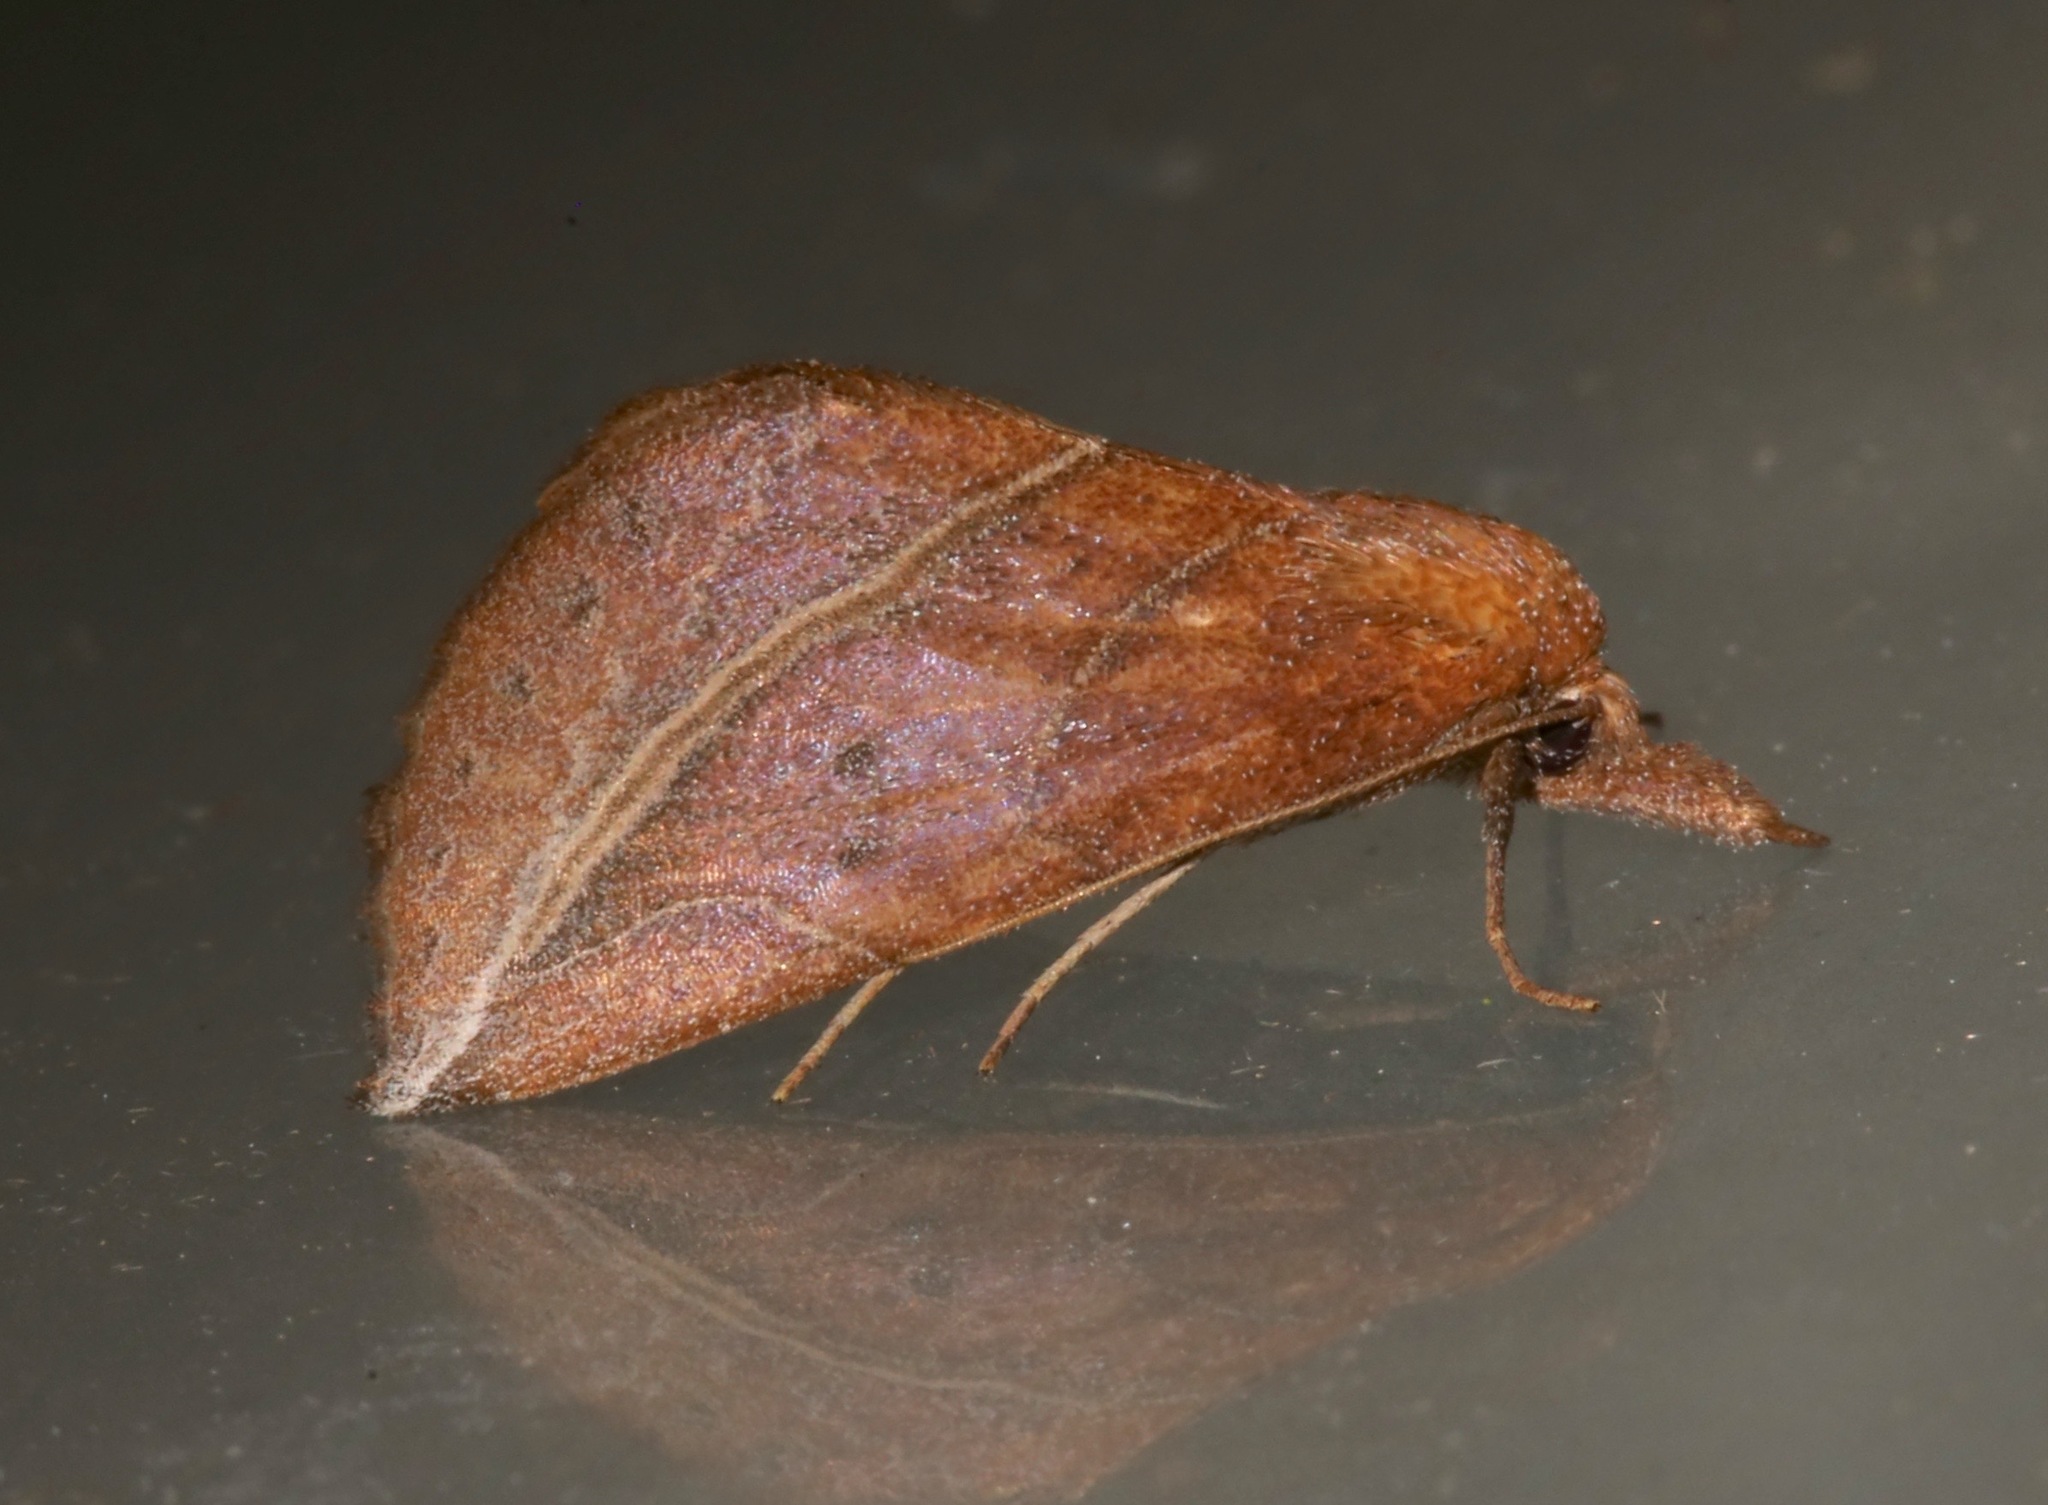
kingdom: Animalia
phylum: Arthropoda
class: Insecta
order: Lepidoptera
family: Erebidae
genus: Phyprosopus
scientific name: Phyprosopus callitrichoides
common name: Curved-lined owlet
